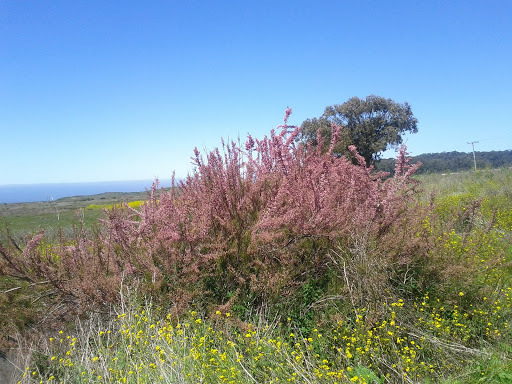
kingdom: Plantae
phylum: Tracheophyta
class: Magnoliopsida
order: Caryophyllales
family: Tamaricaceae
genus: Tamarix
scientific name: Tamarix ramosissima
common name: Pink tamarisk
